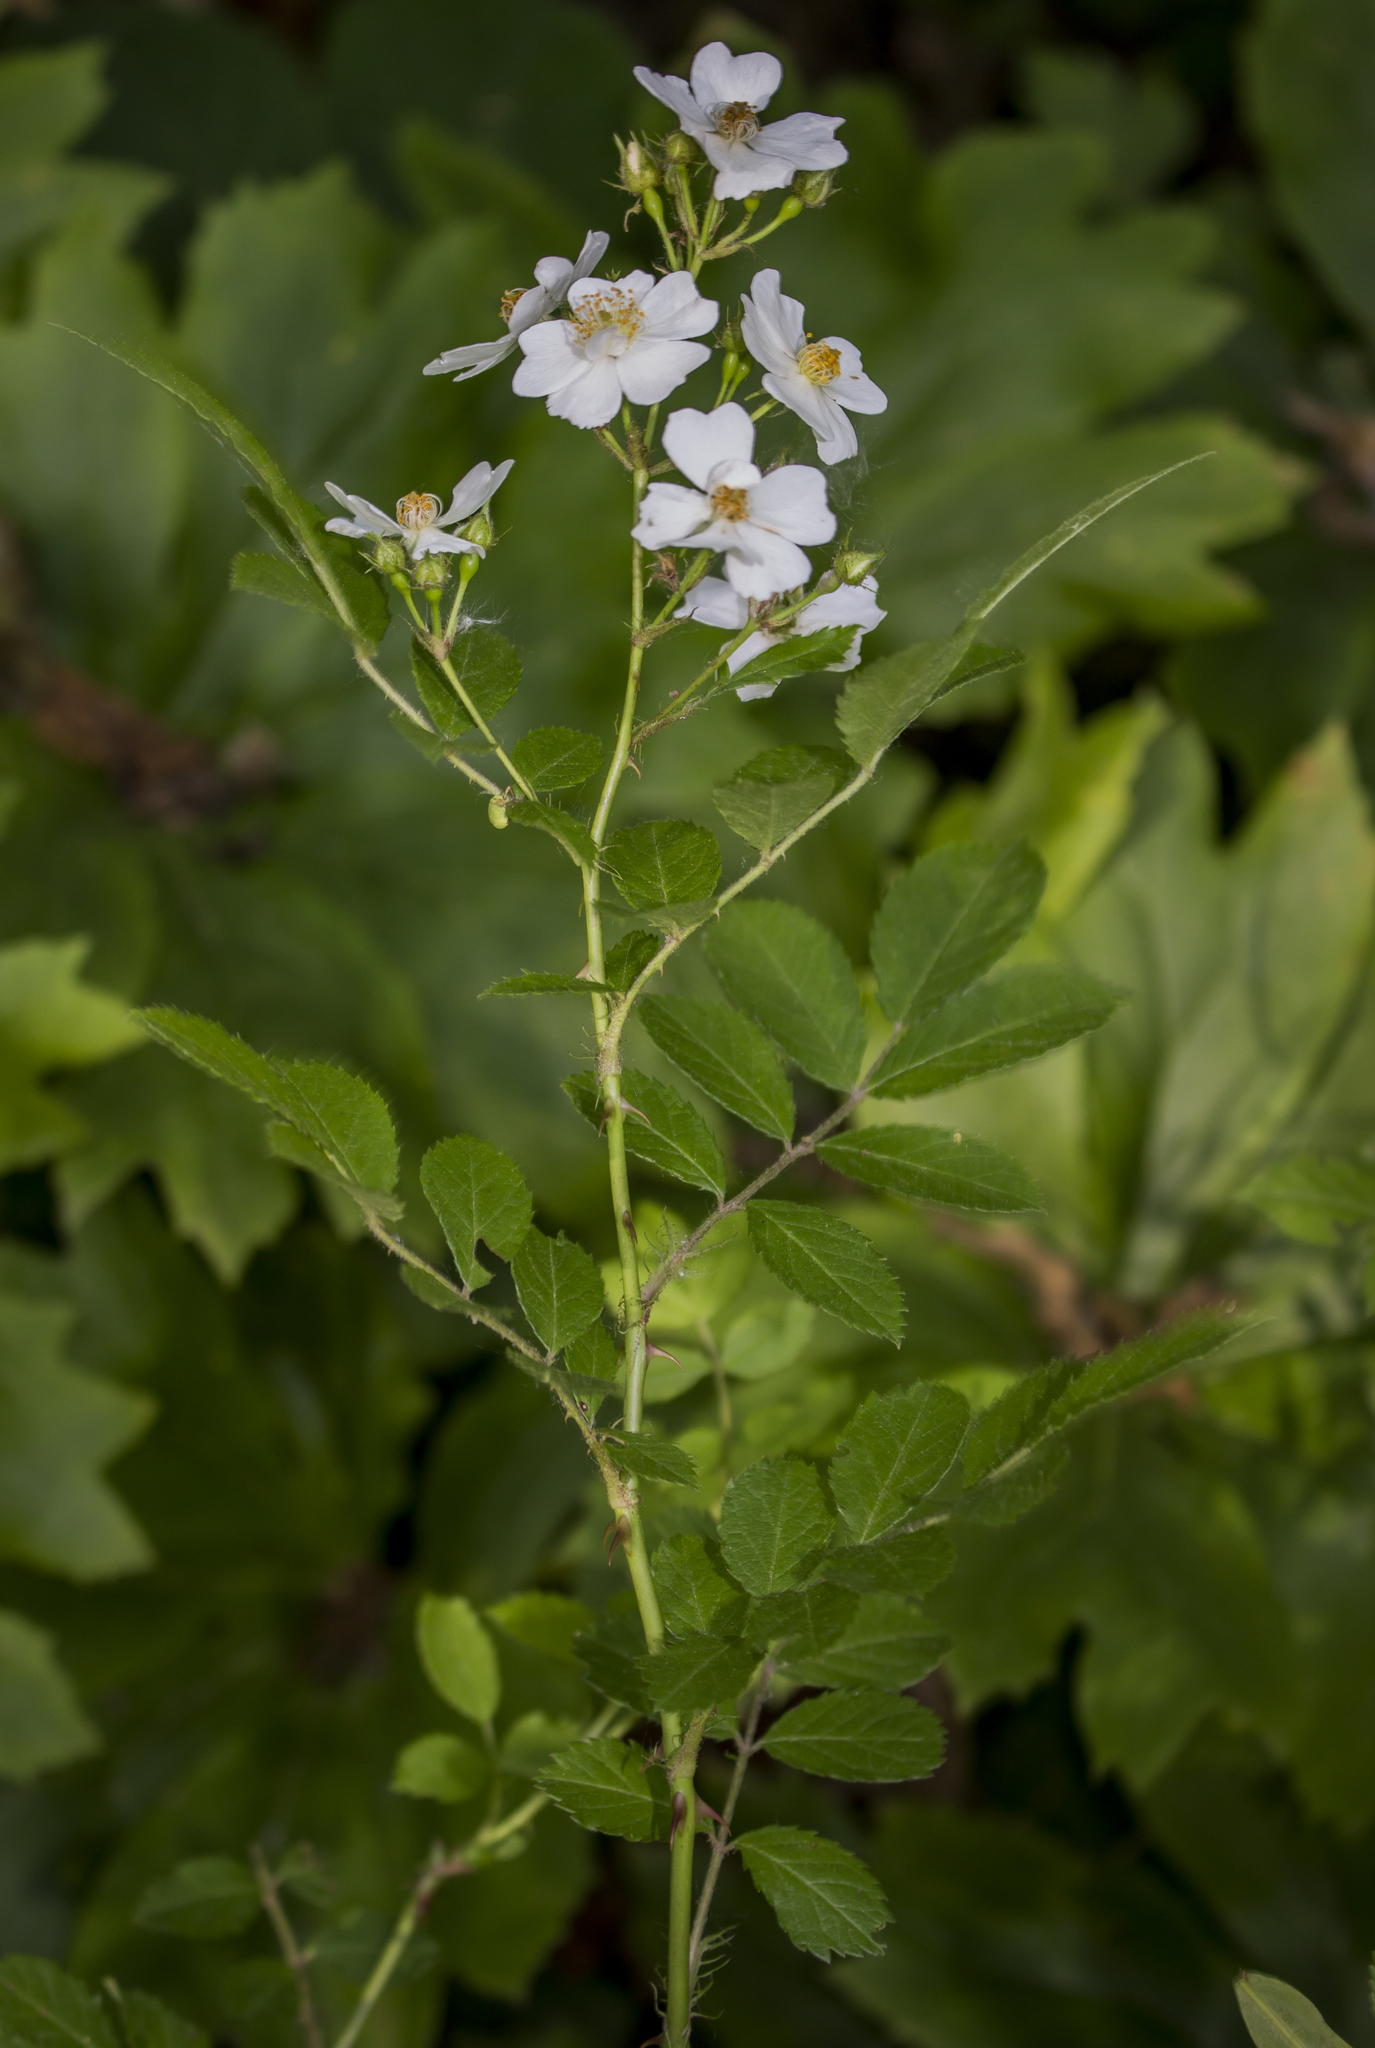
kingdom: Plantae
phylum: Tracheophyta
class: Magnoliopsida
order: Rosales
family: Rosaceae
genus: Rosa
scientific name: Rosa multiflora
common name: Multiflora rose
